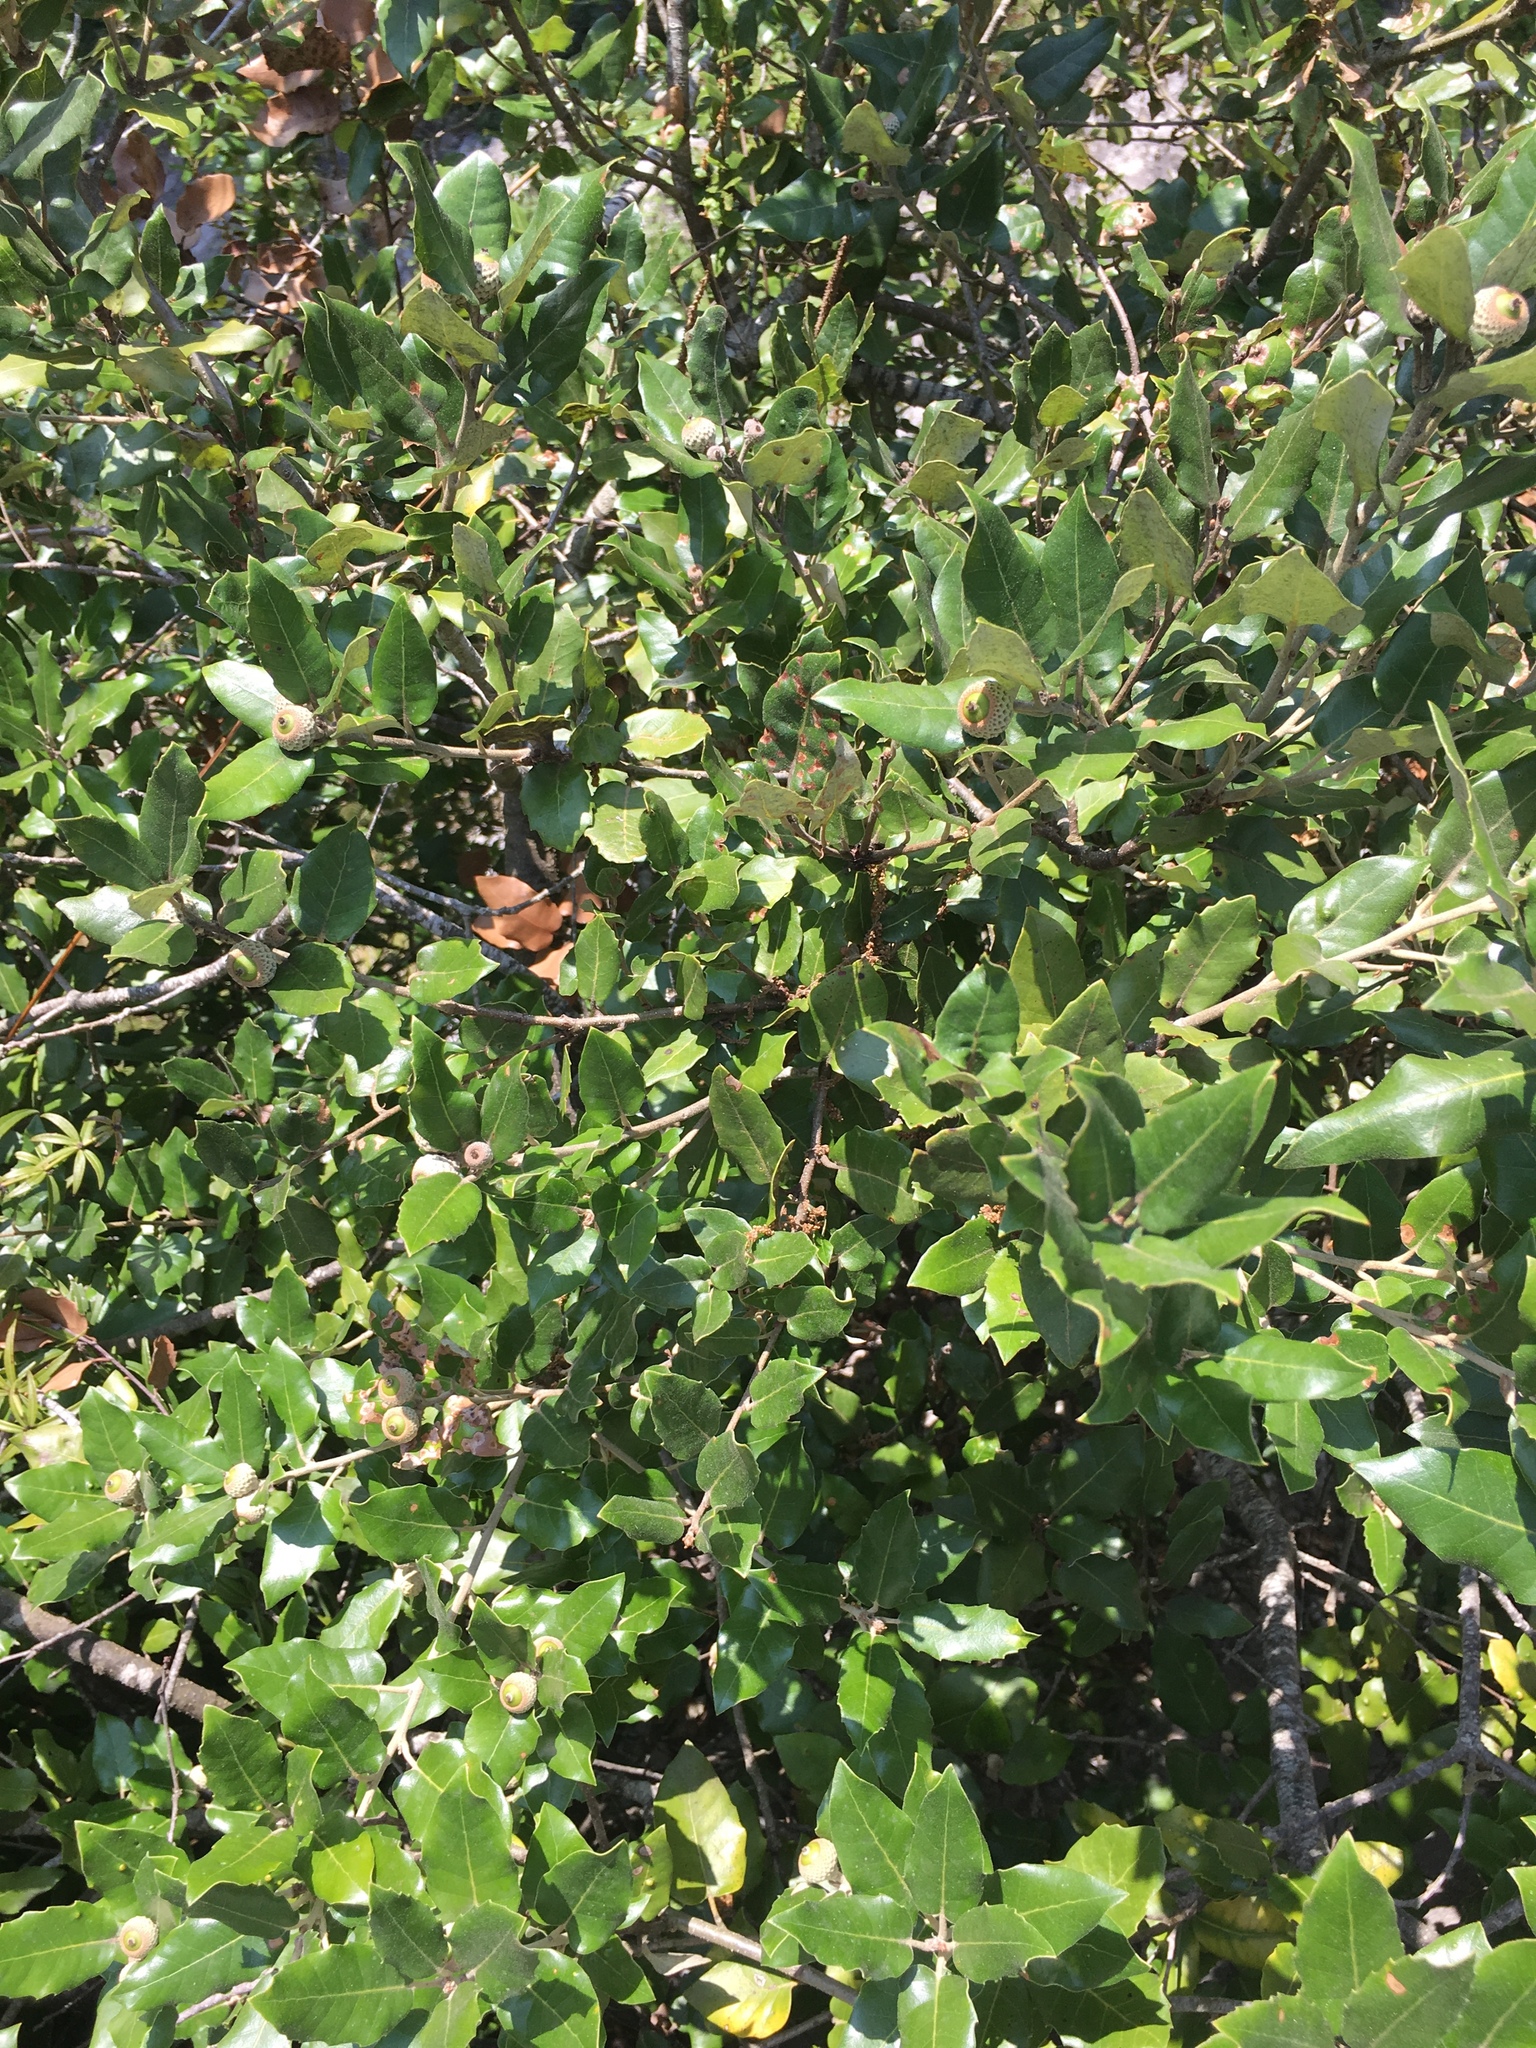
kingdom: Plantae
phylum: Tracheophyta
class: Magnoliopsida
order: Fagales
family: Fagaceae
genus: Quercus
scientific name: Quercus ilex
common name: Evergreen oak
